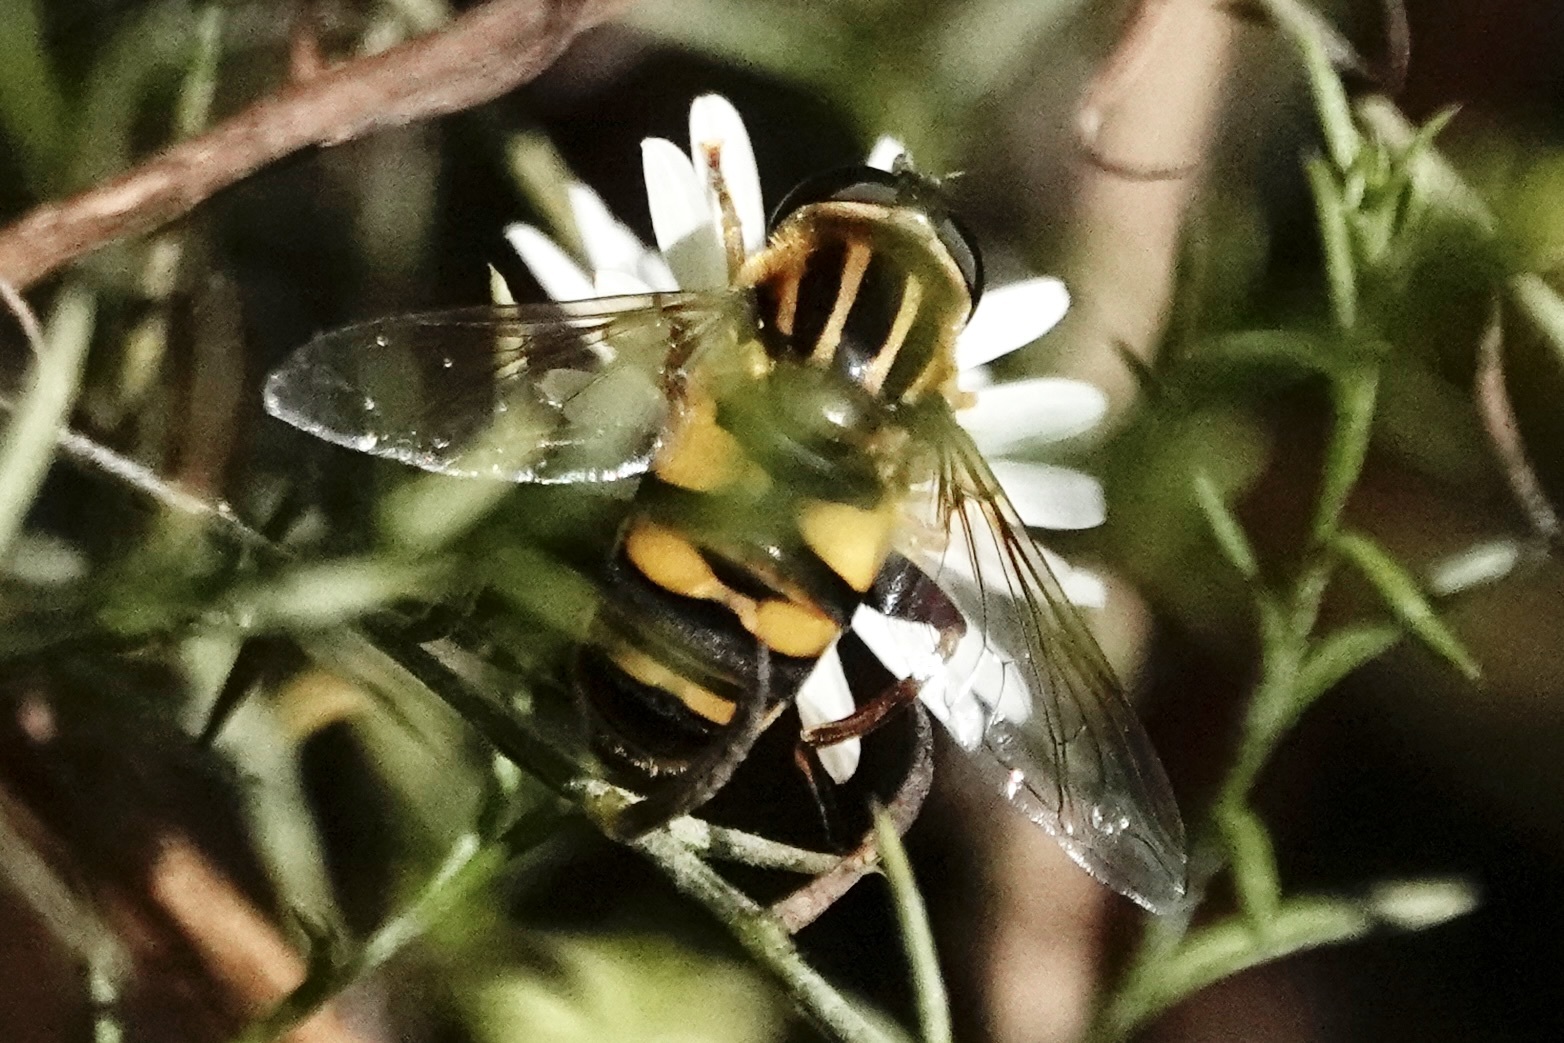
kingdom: Animalia
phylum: Arthropoda
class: Insecta
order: Diptera
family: Syrphidae
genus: Helophilus
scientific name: Helophilus fasciatus
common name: Narrow-headed marsh fly
